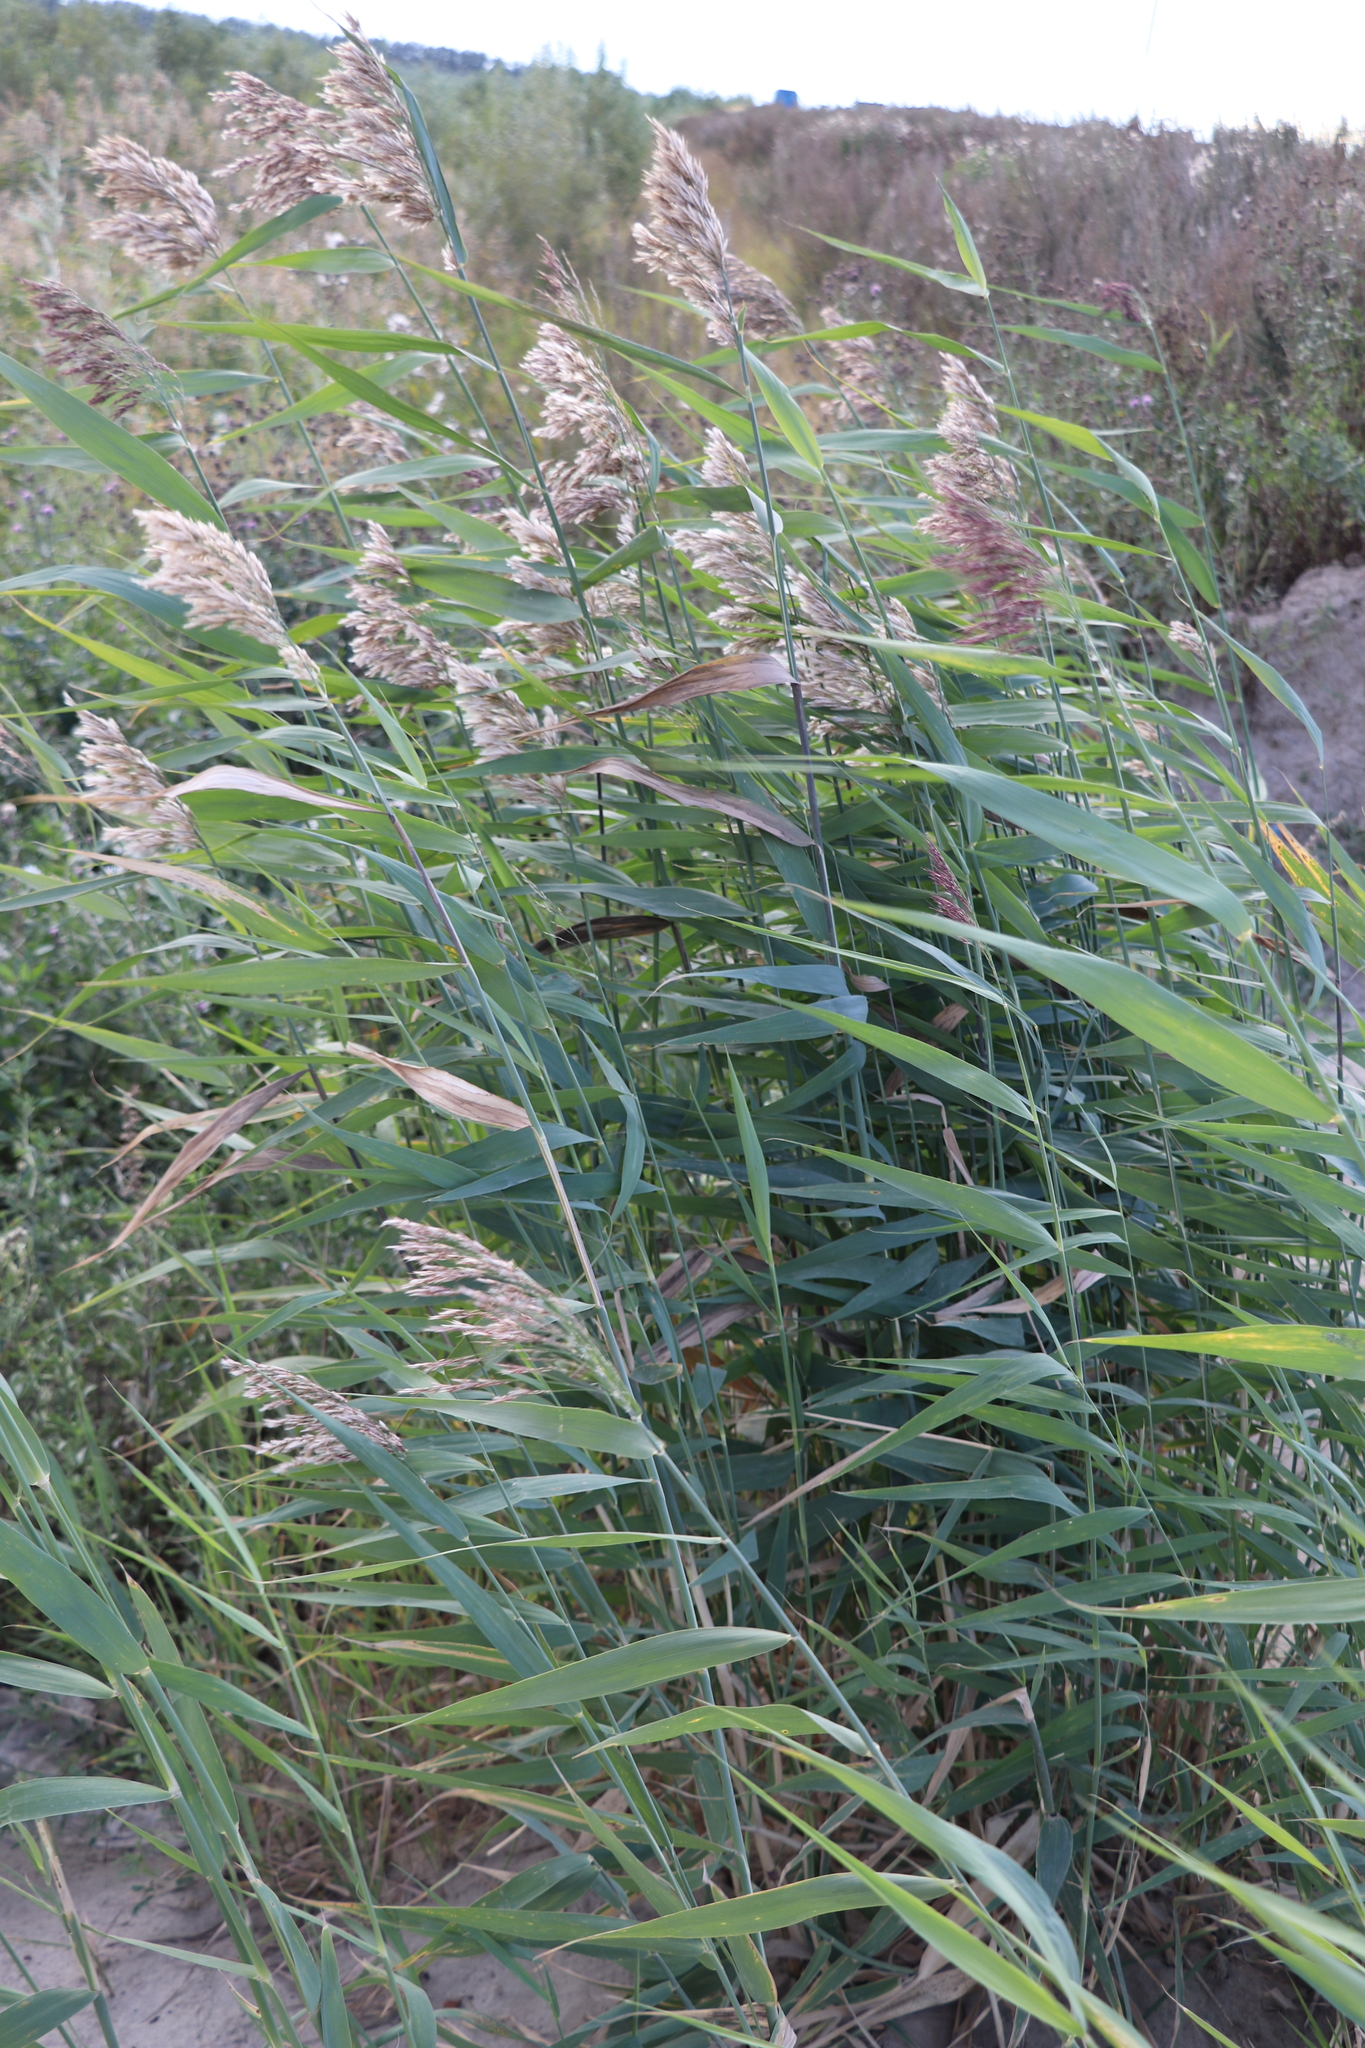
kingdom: Plantae
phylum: Tracheophyta
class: Liliopsida
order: Poales
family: Poaceae
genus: Phragmites
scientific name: Phragmites australis
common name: Common reed
